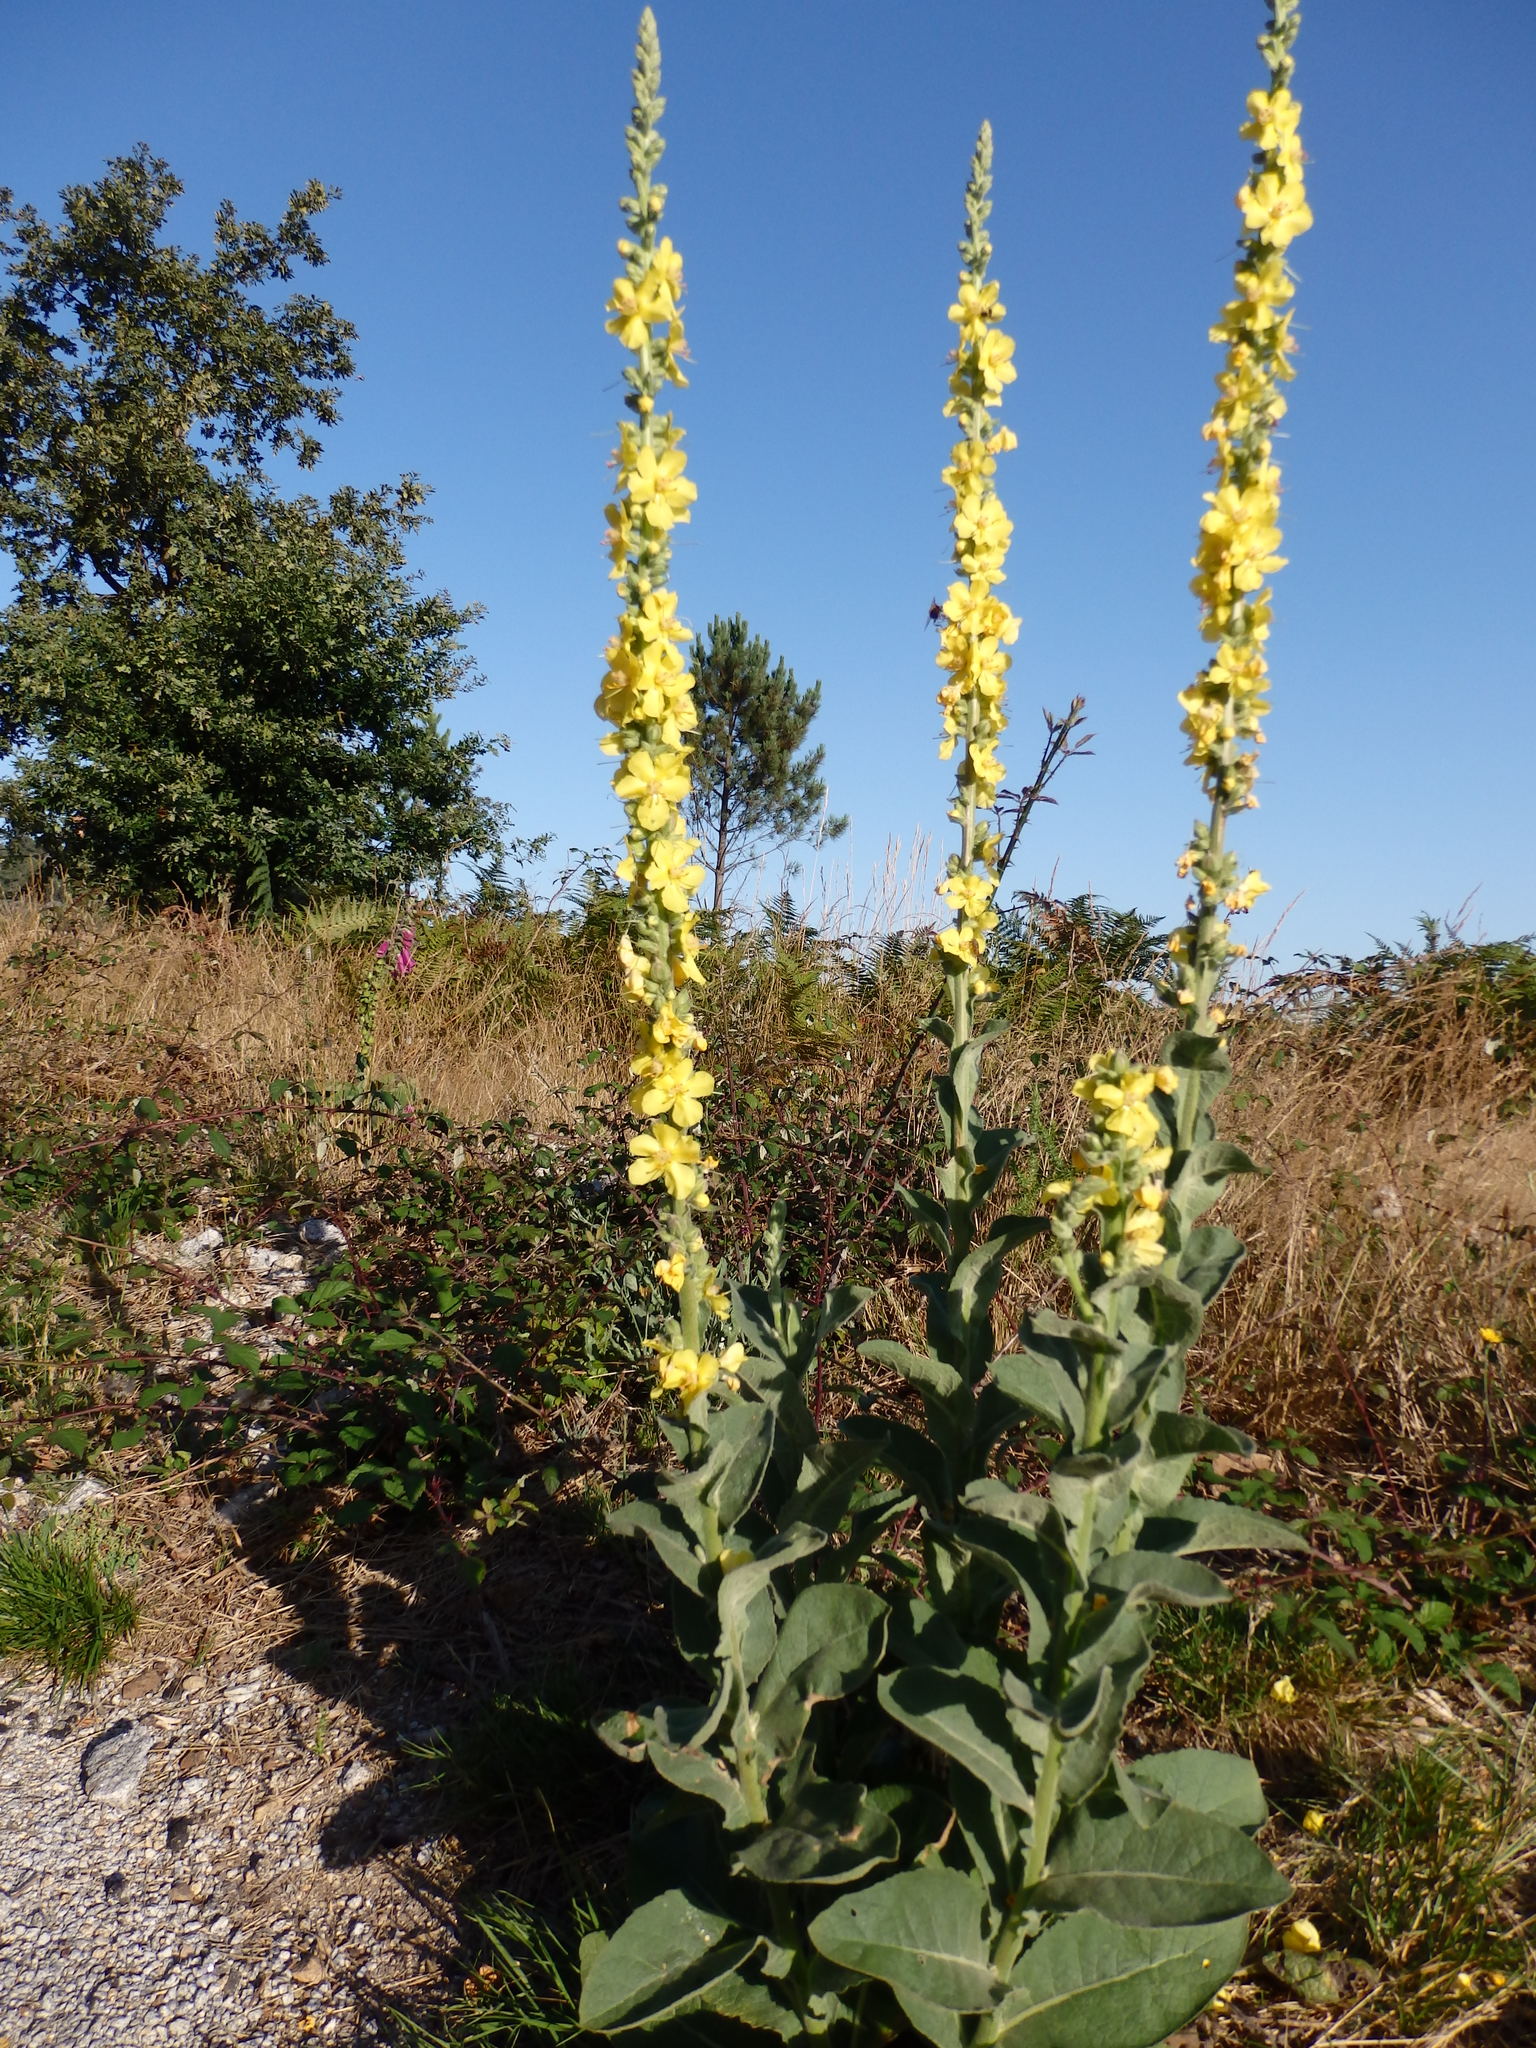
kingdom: Plantae
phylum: Tracheophyta
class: Magnoliopsida
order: Lamiales
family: Scrophulariaceae
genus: Verbascum
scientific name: Verbascum simplex
